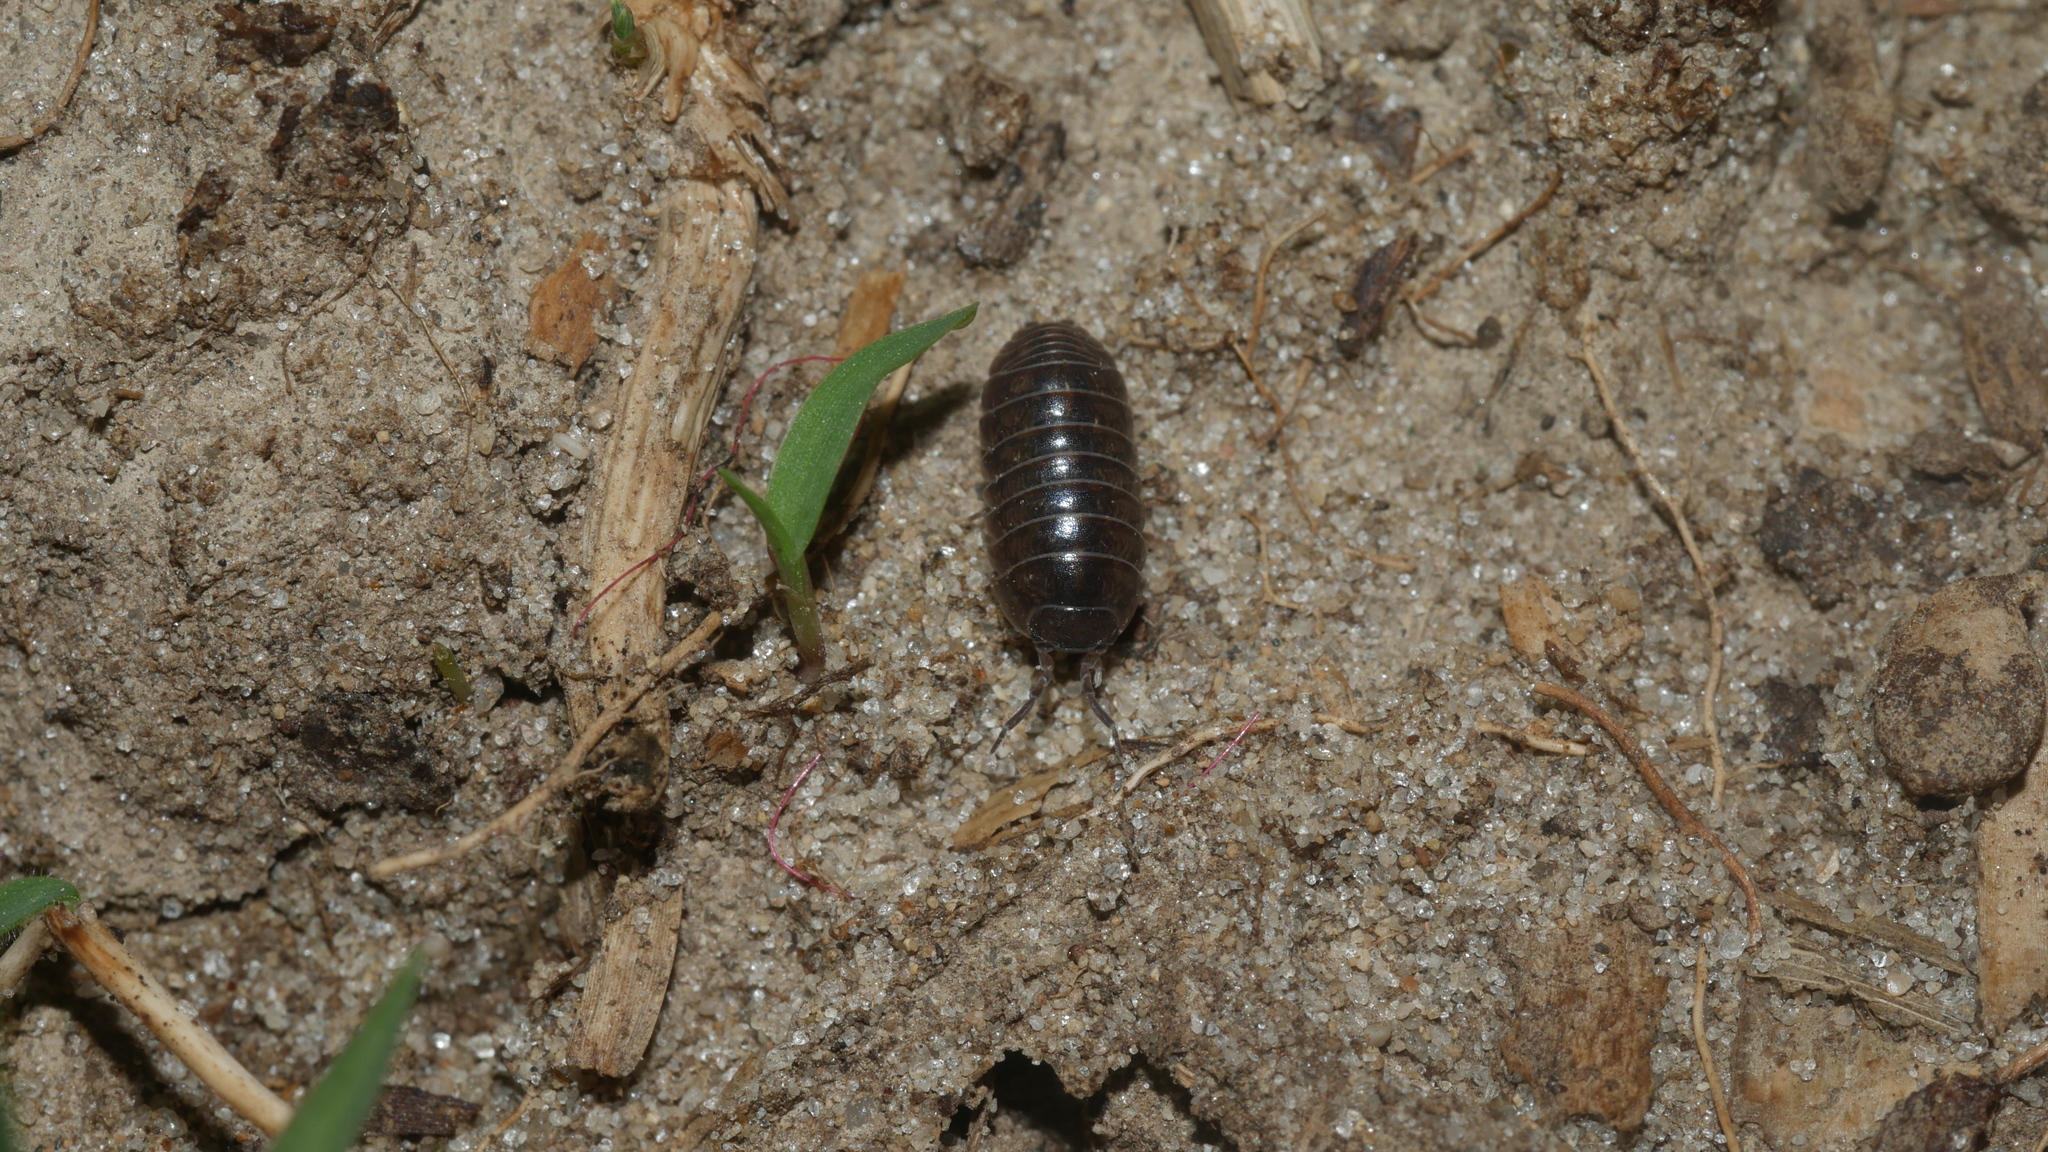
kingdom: Animalia
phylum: Arthropoda
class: Malacostraca
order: Isopoda
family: Armadillidiidae
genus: Armadillidium
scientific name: Armadillidium vulgare
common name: Common pill woodlouse
